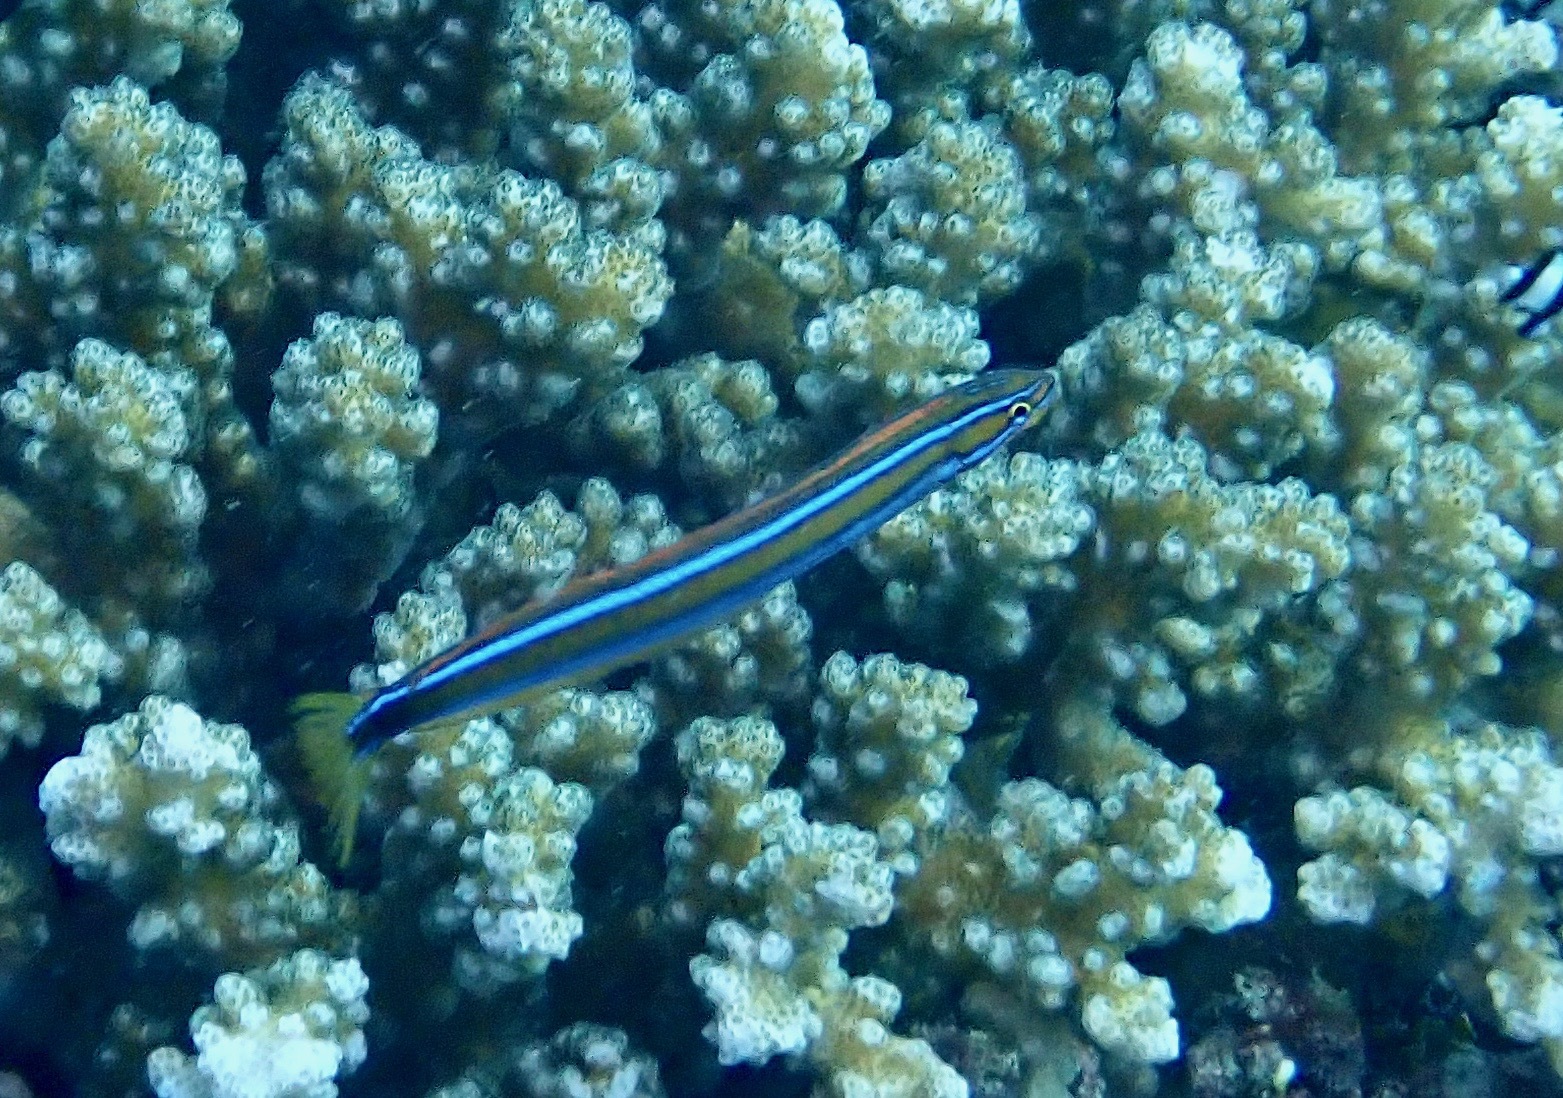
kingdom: Animalia
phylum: Chordata
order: Perciformes
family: Blenniidae
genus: Plagiotremus
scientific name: Plagiotremus rhinorhynchos
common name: Bluestriped fangblenny
